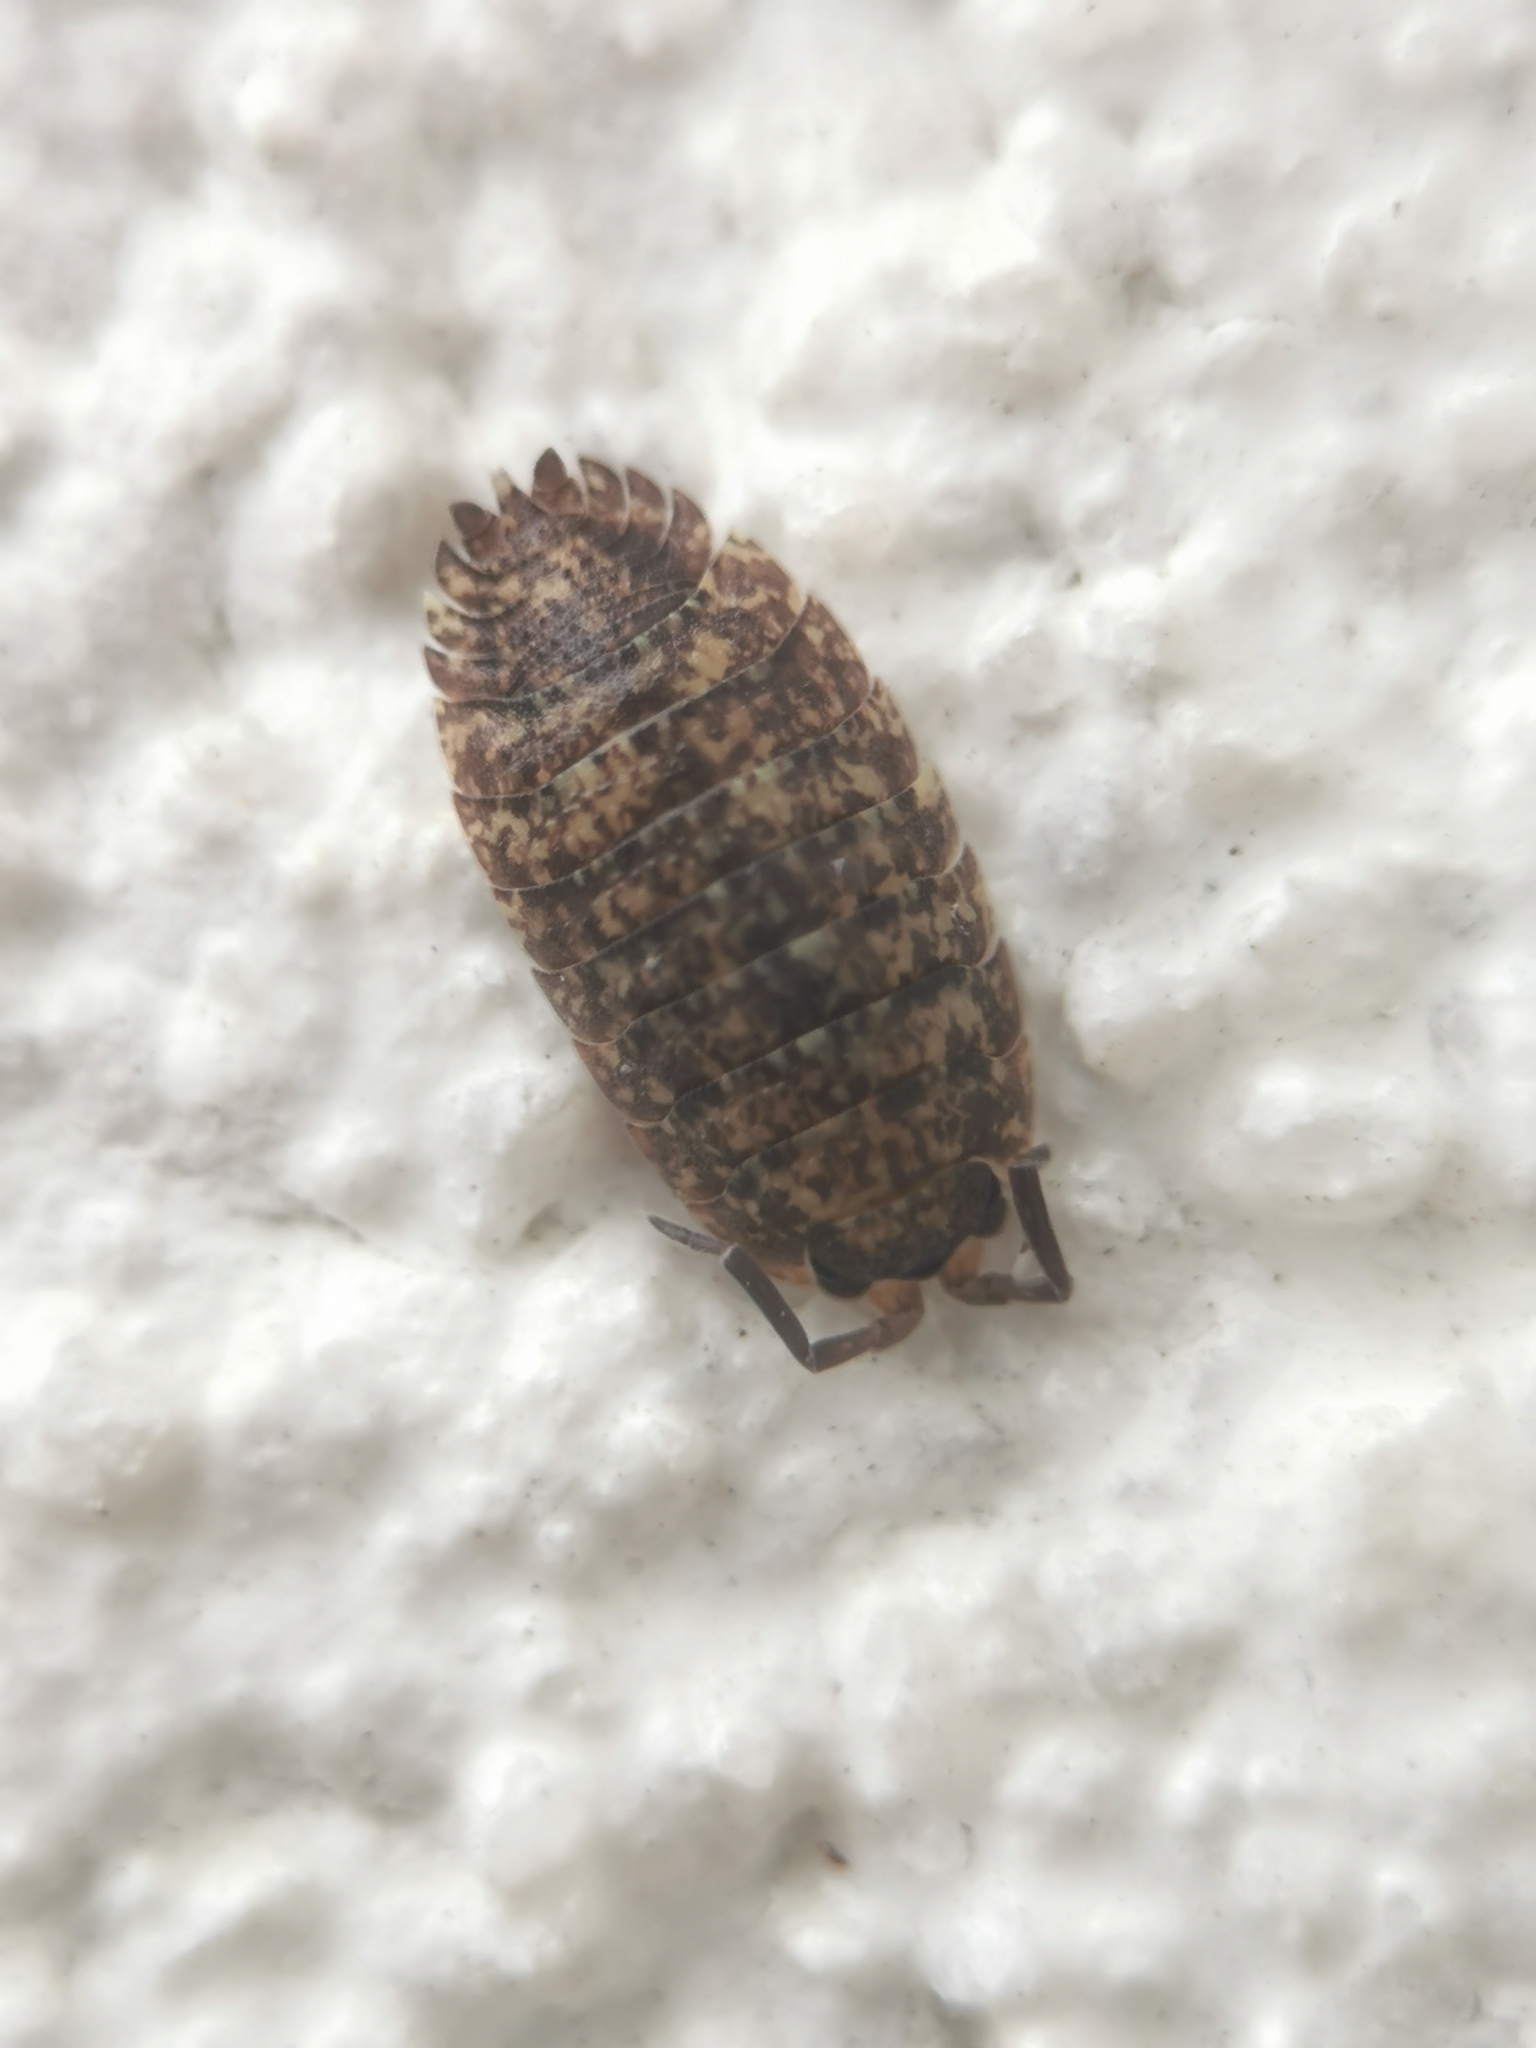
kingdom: Animalia
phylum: Arthropoda
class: Malacostraca
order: Isopoda
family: Porcellionidae
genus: Porcellio
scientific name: Porcellio scaber
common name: Common rough woodlouse
